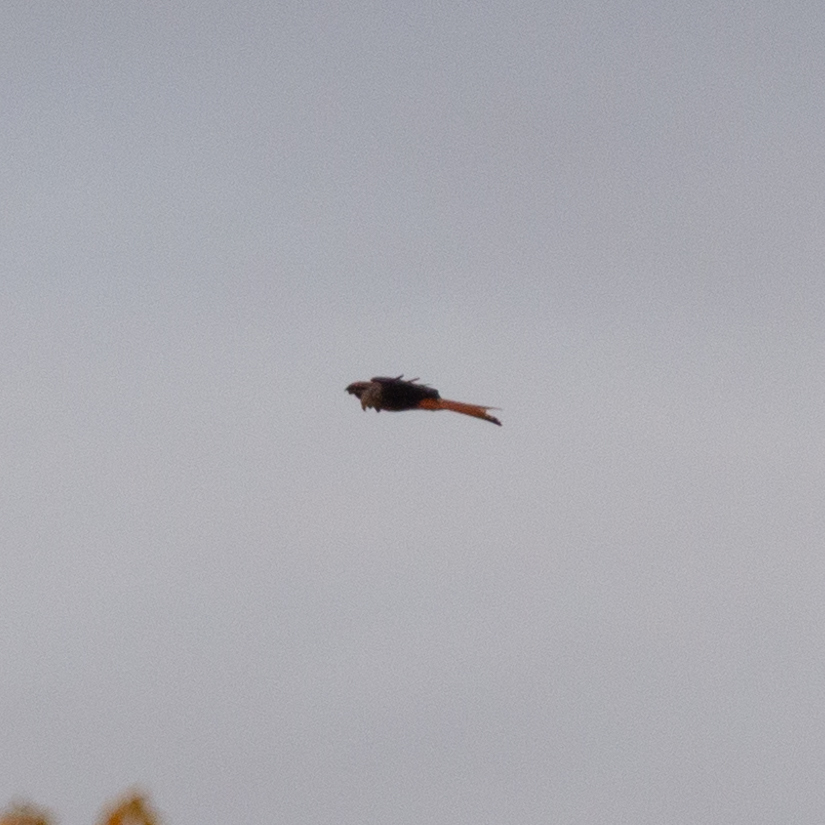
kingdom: Animalia
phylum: Chordata
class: Aves
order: Accipitriformes
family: Accipitridae
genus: Milvus
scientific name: Milvus milvus
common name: Red kite
